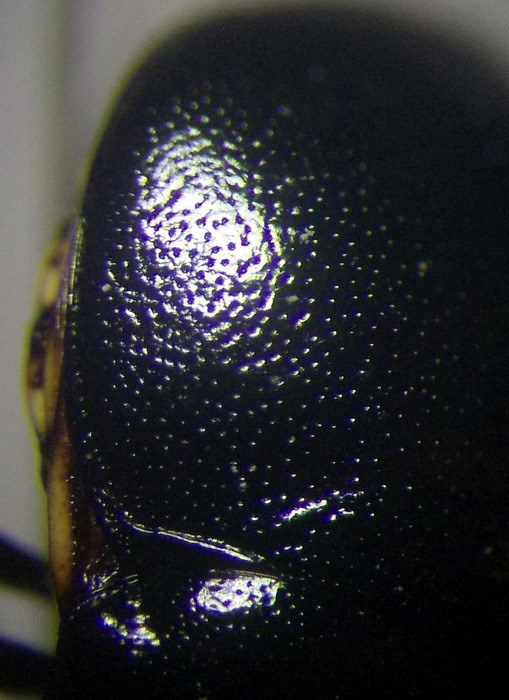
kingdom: Animalia
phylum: Arthropoda
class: Insecta
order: Hemiptera
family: Plataspidae
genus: Coptosoma
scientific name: Coptosoma mucronatum
